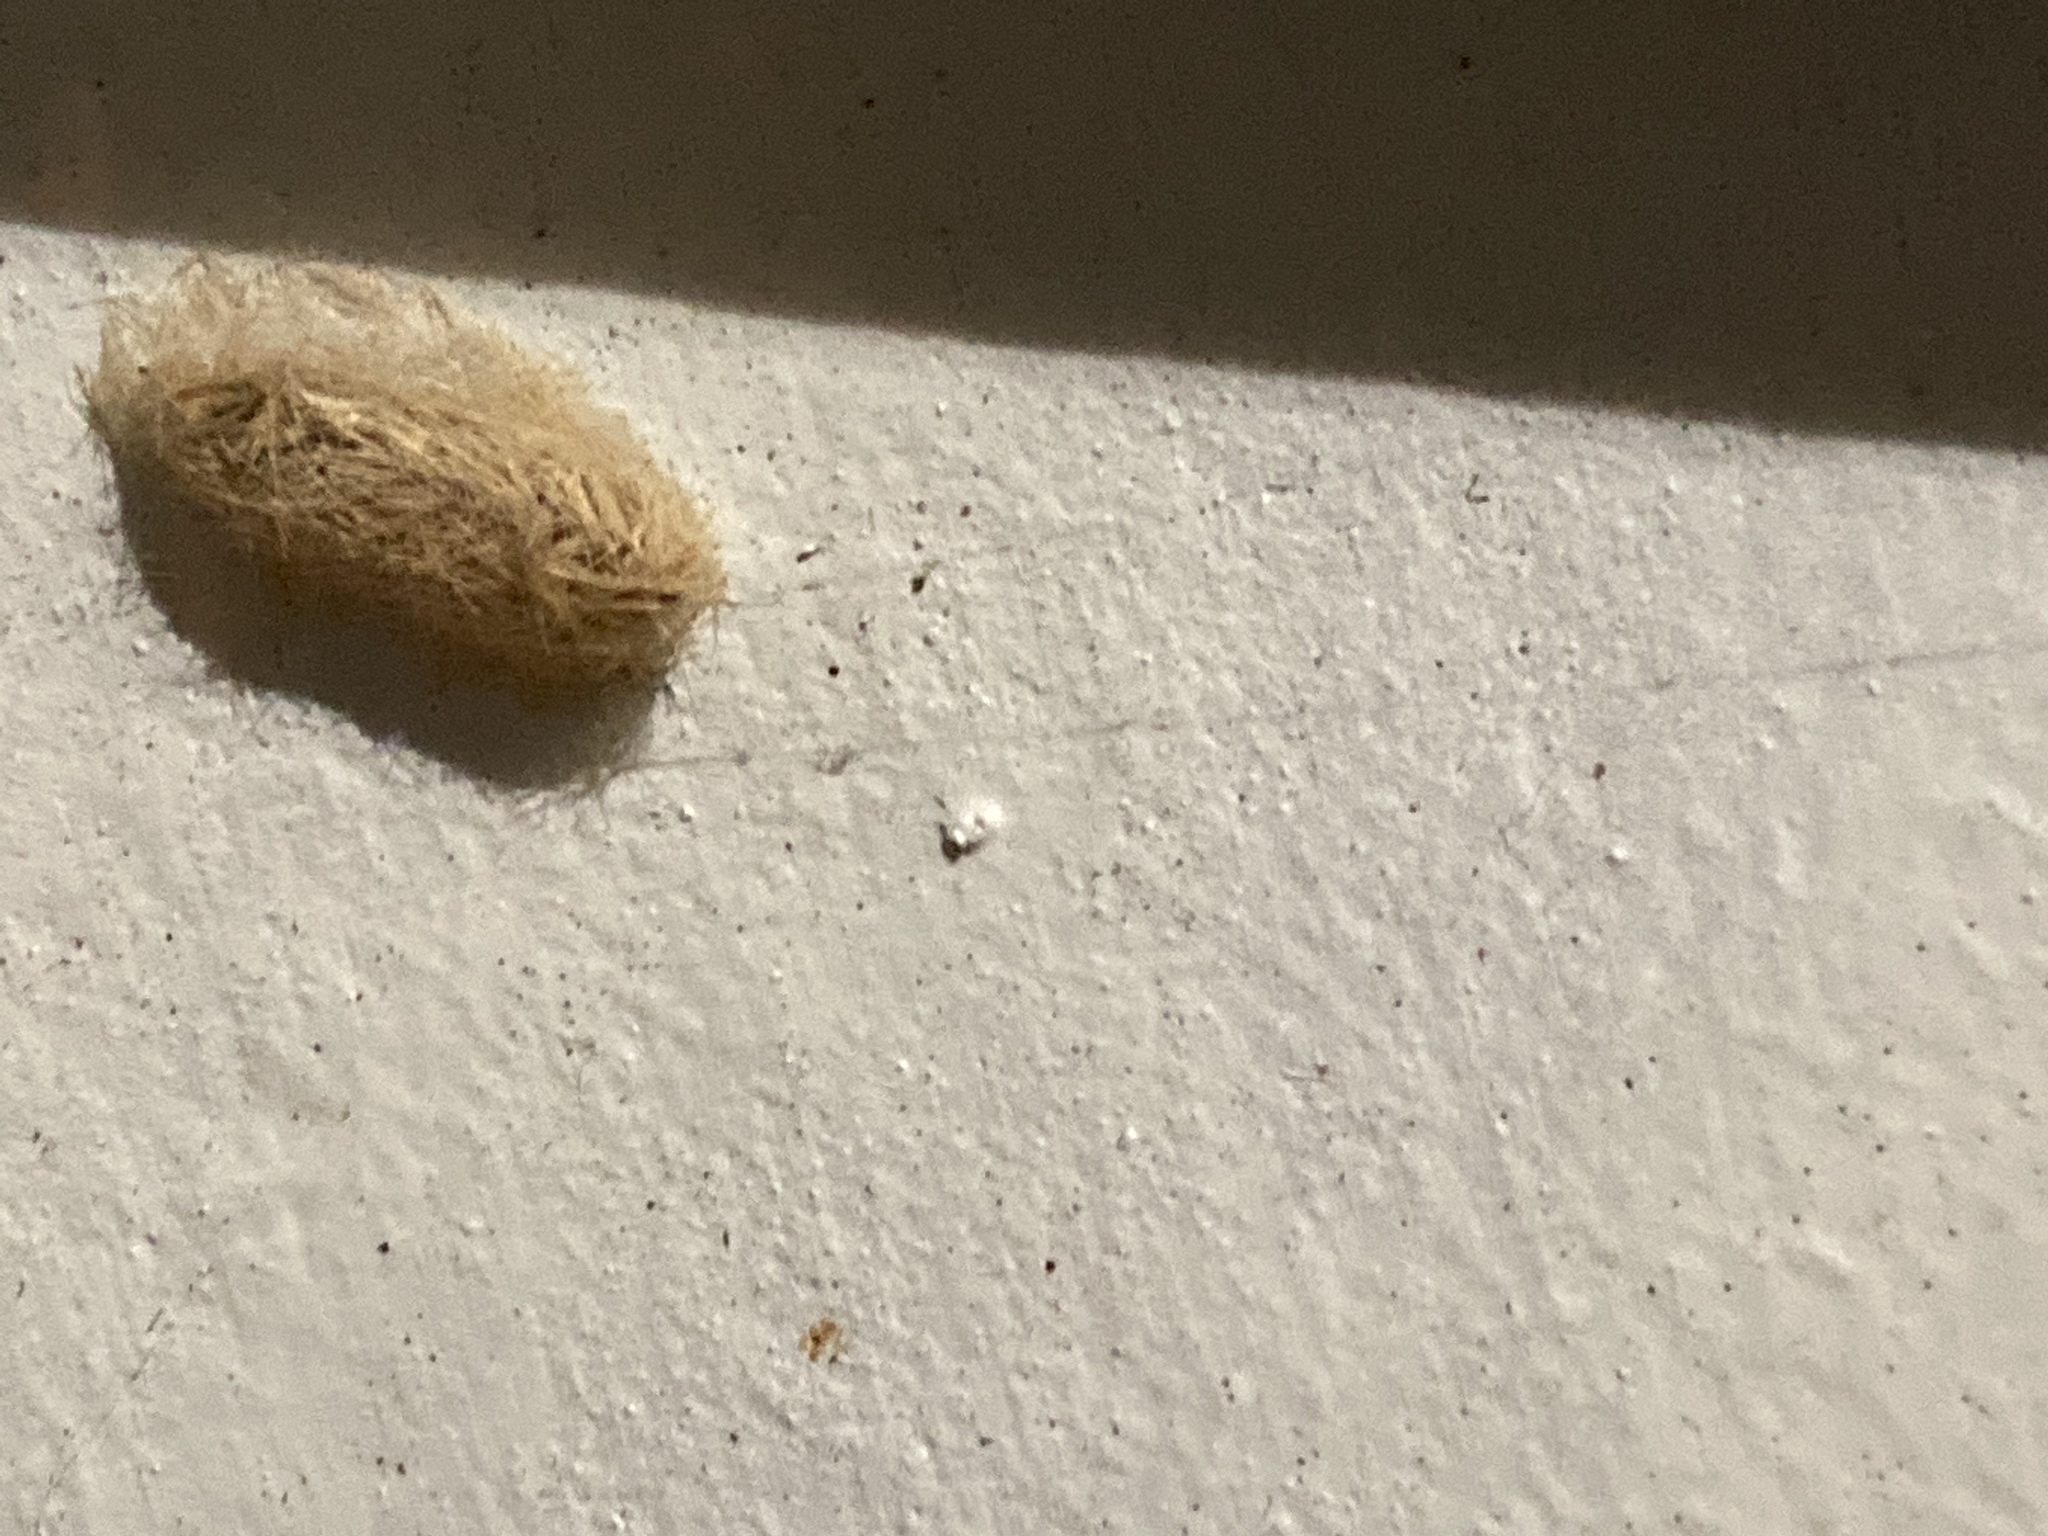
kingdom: Animalia
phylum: Arthropoda
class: Insecta
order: Lepidoptera
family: Erebidae
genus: Lymire
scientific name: Lymire edwardsii
